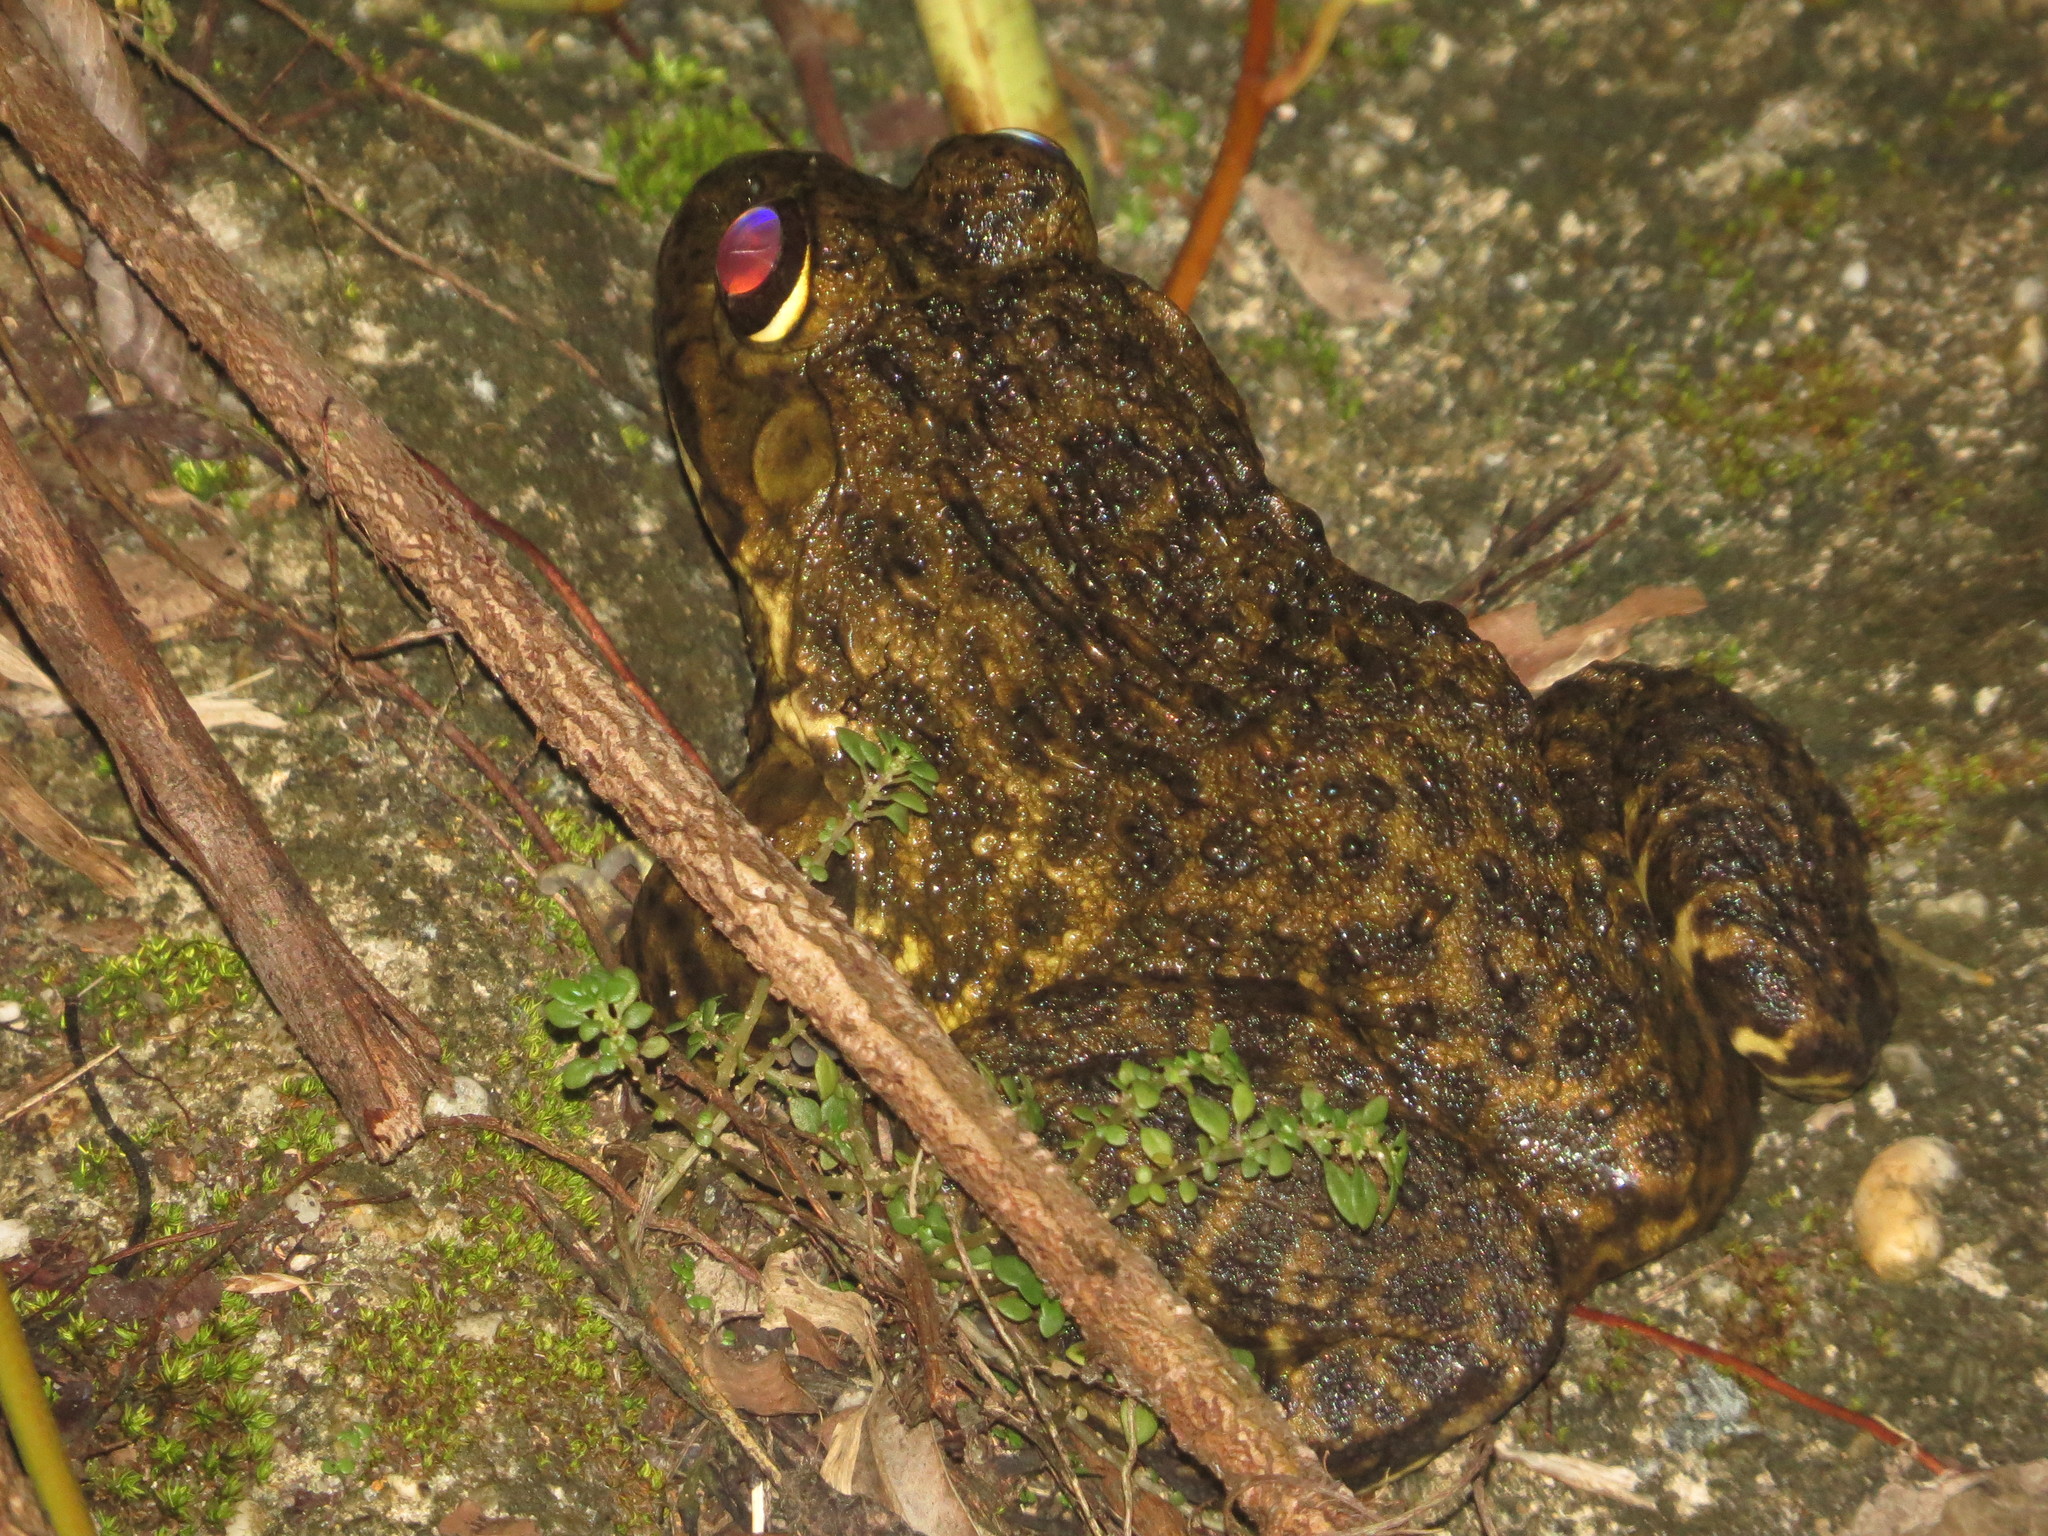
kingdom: Animalia
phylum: Chordata
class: Amphibia
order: Anura
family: Dicroglossidae
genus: Hoplobatrachus
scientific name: Hoplobatrachus rugulosus
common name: Chinese edible frog
